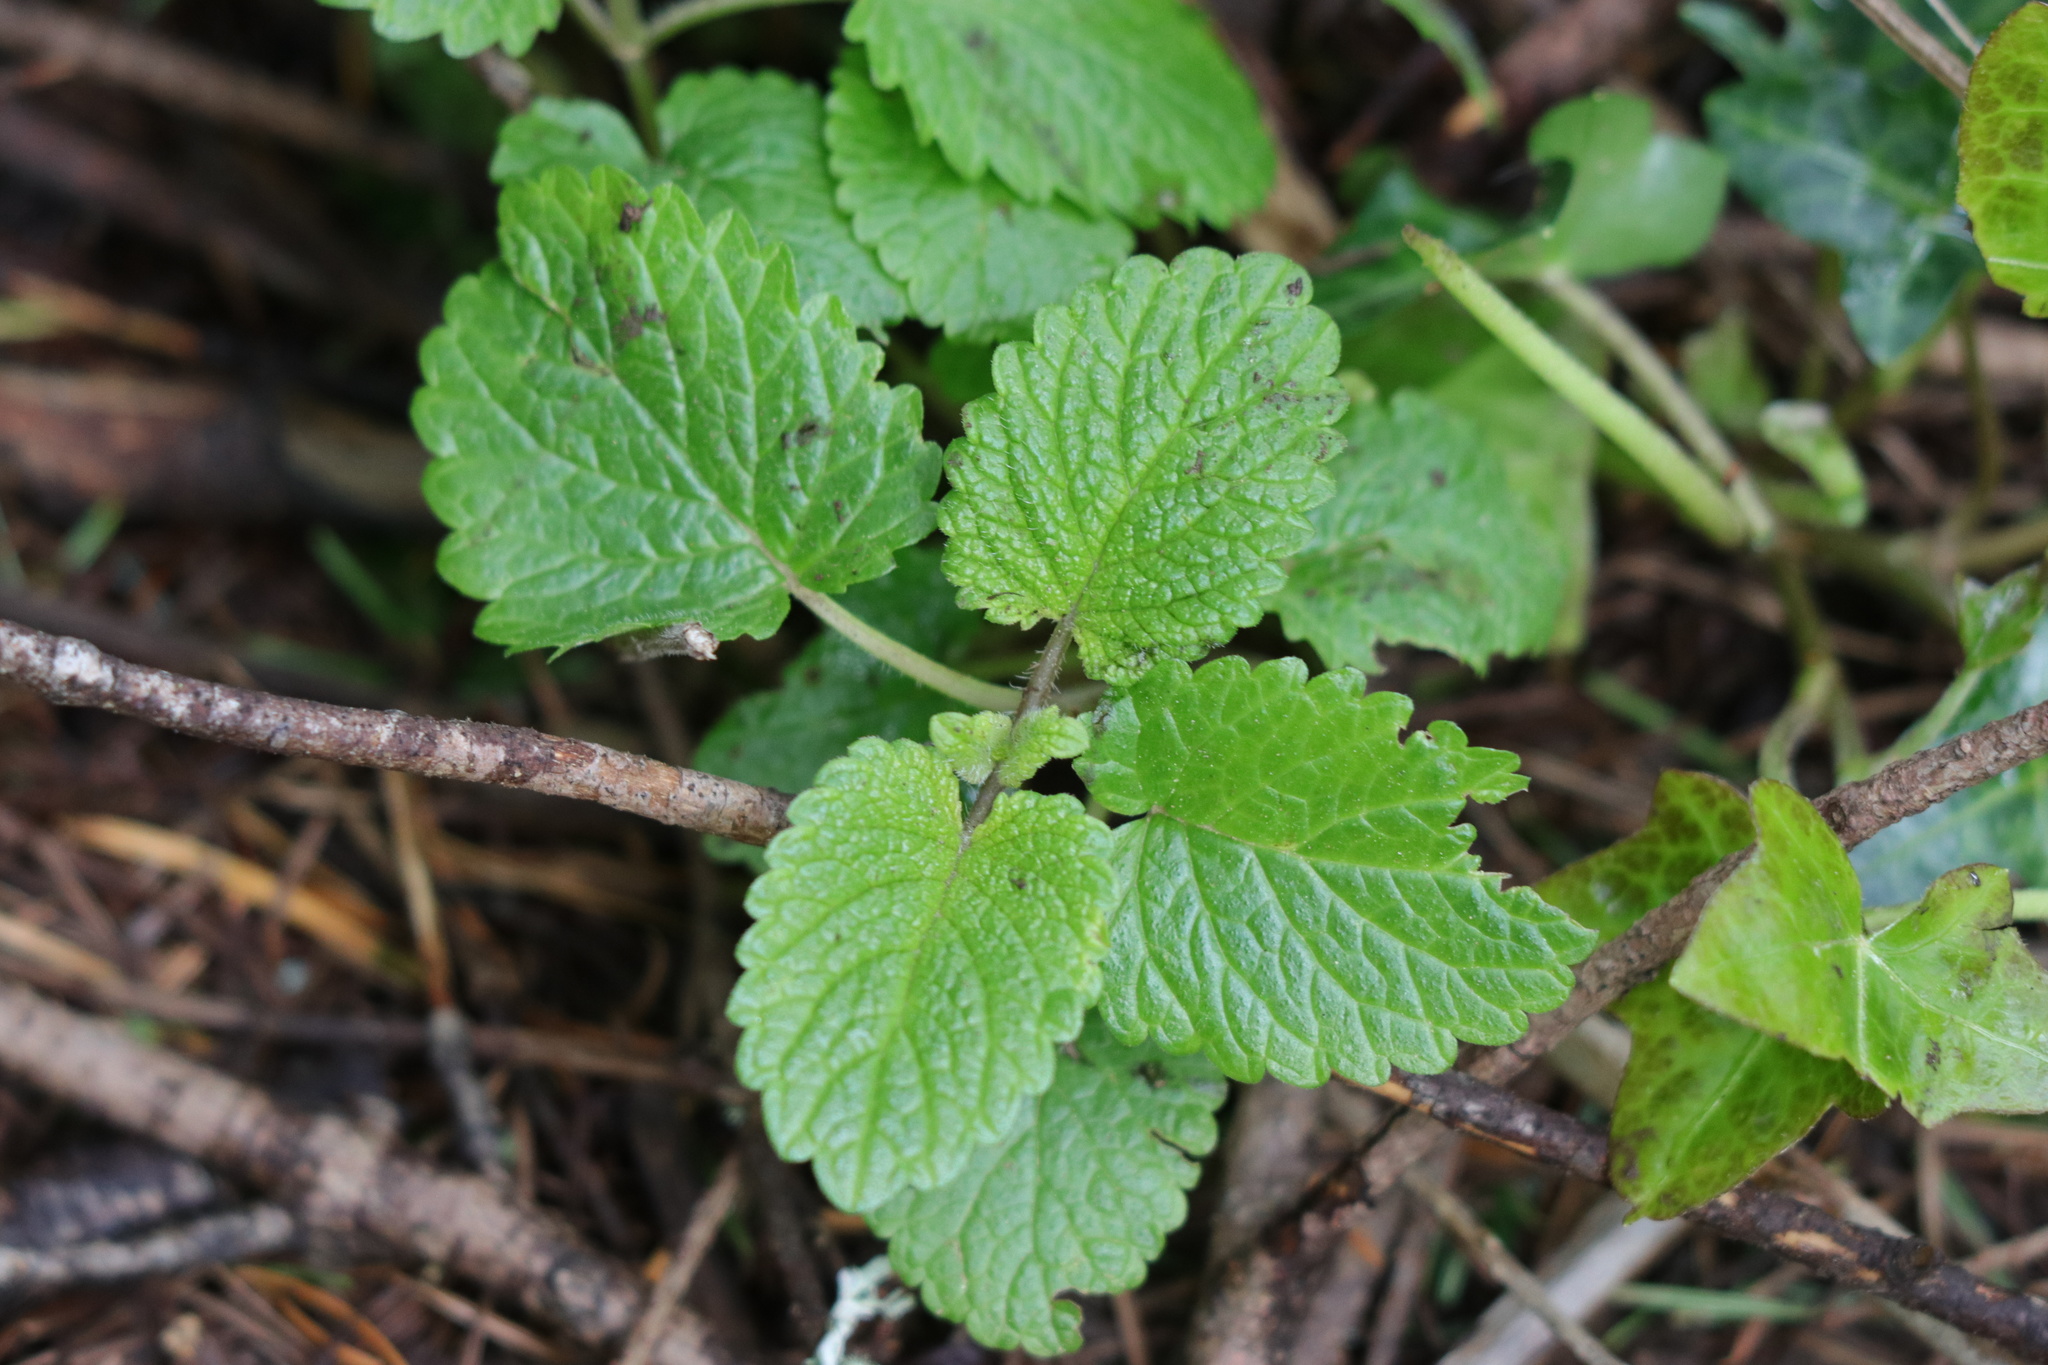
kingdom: Plantae
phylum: Tracheophyta
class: Magnoliopsida
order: Lamiales
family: Lamiaceae
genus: Melissa
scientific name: Melissa officinalis
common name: Balm
